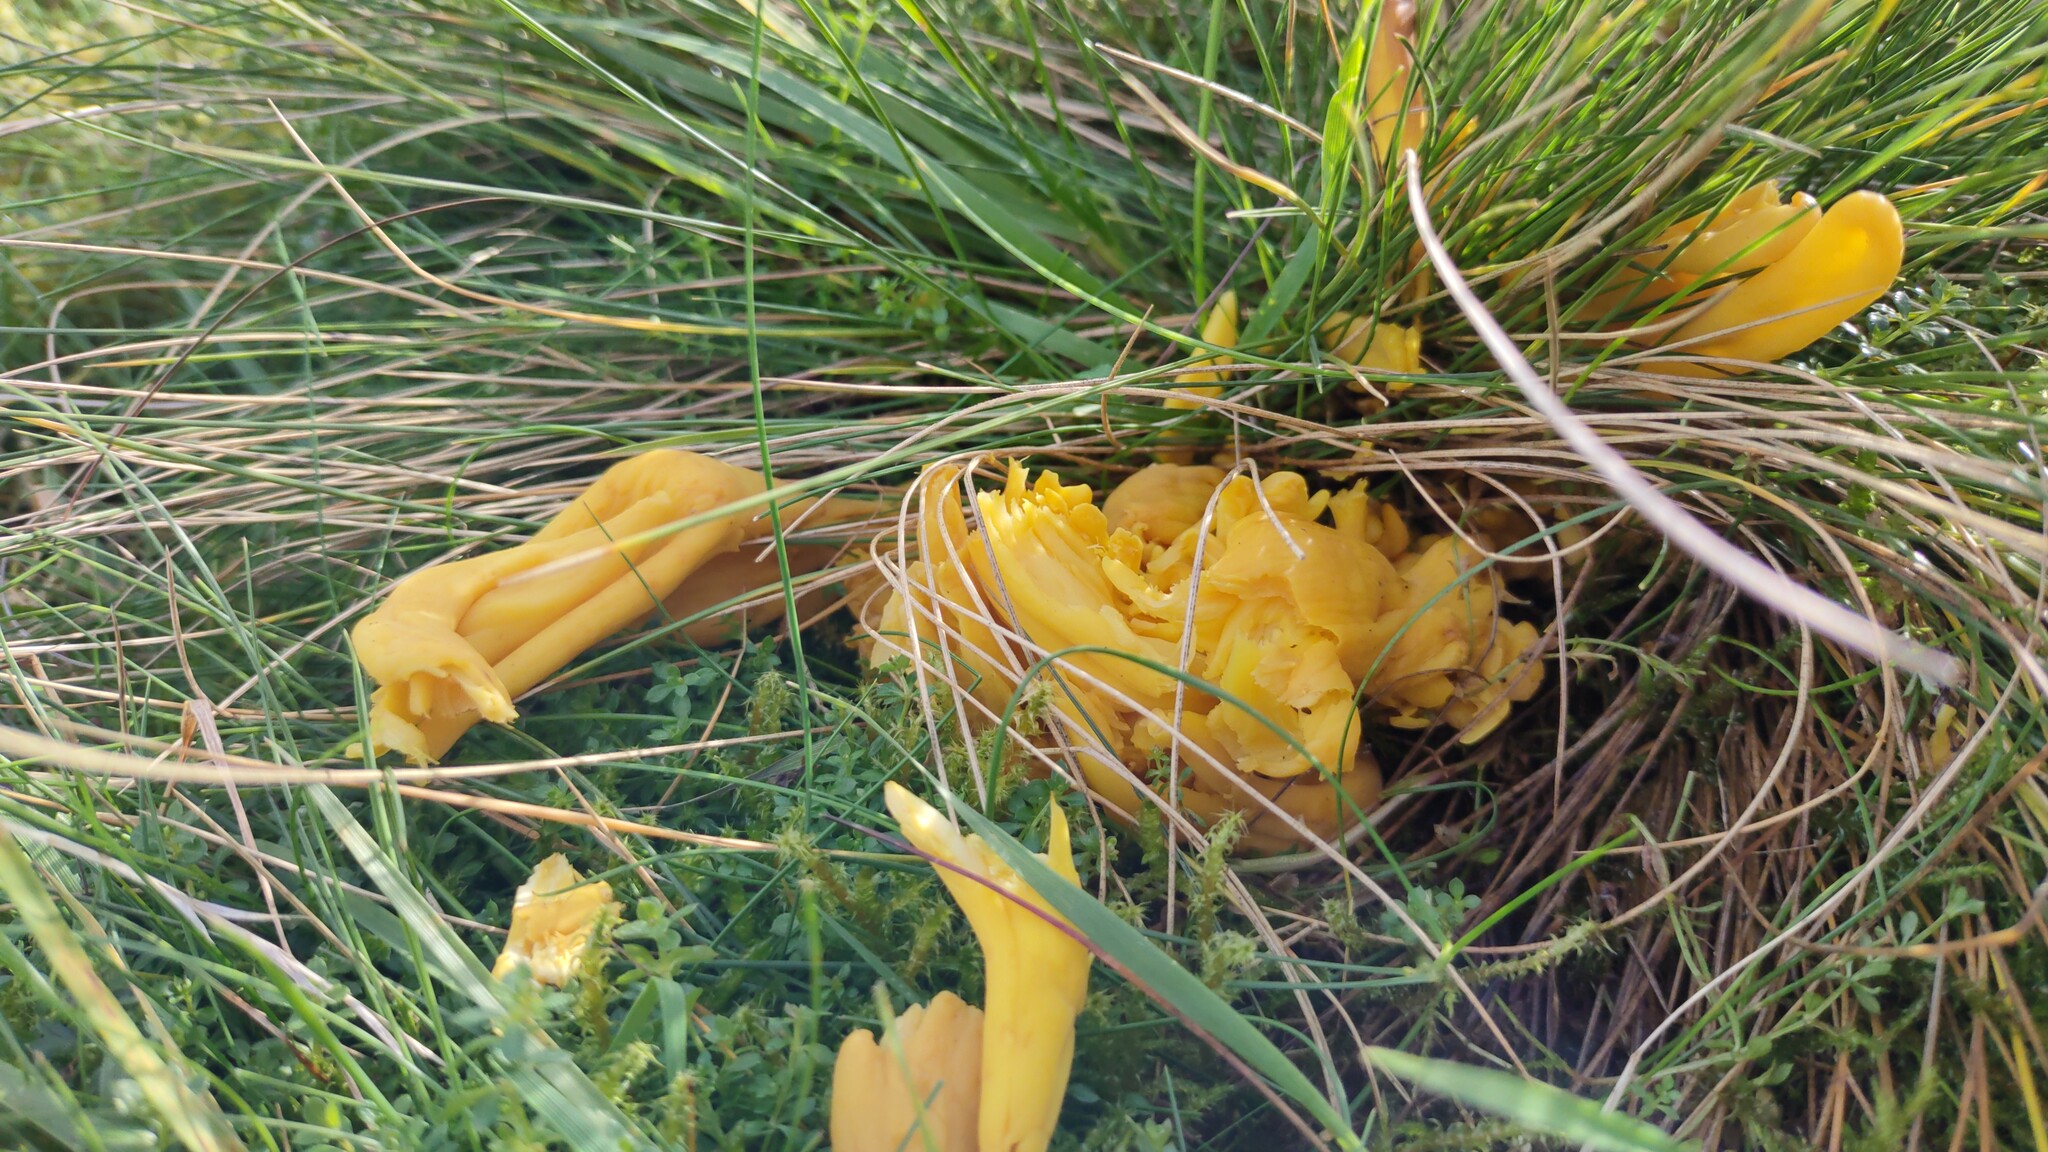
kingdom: Fungi
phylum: Basidiomycota
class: Agaricomycetes
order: Agaricales
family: Clavariaceae
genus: Clavulinopsis
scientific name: Clavulinopsis fusiformis
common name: Golden spindles
